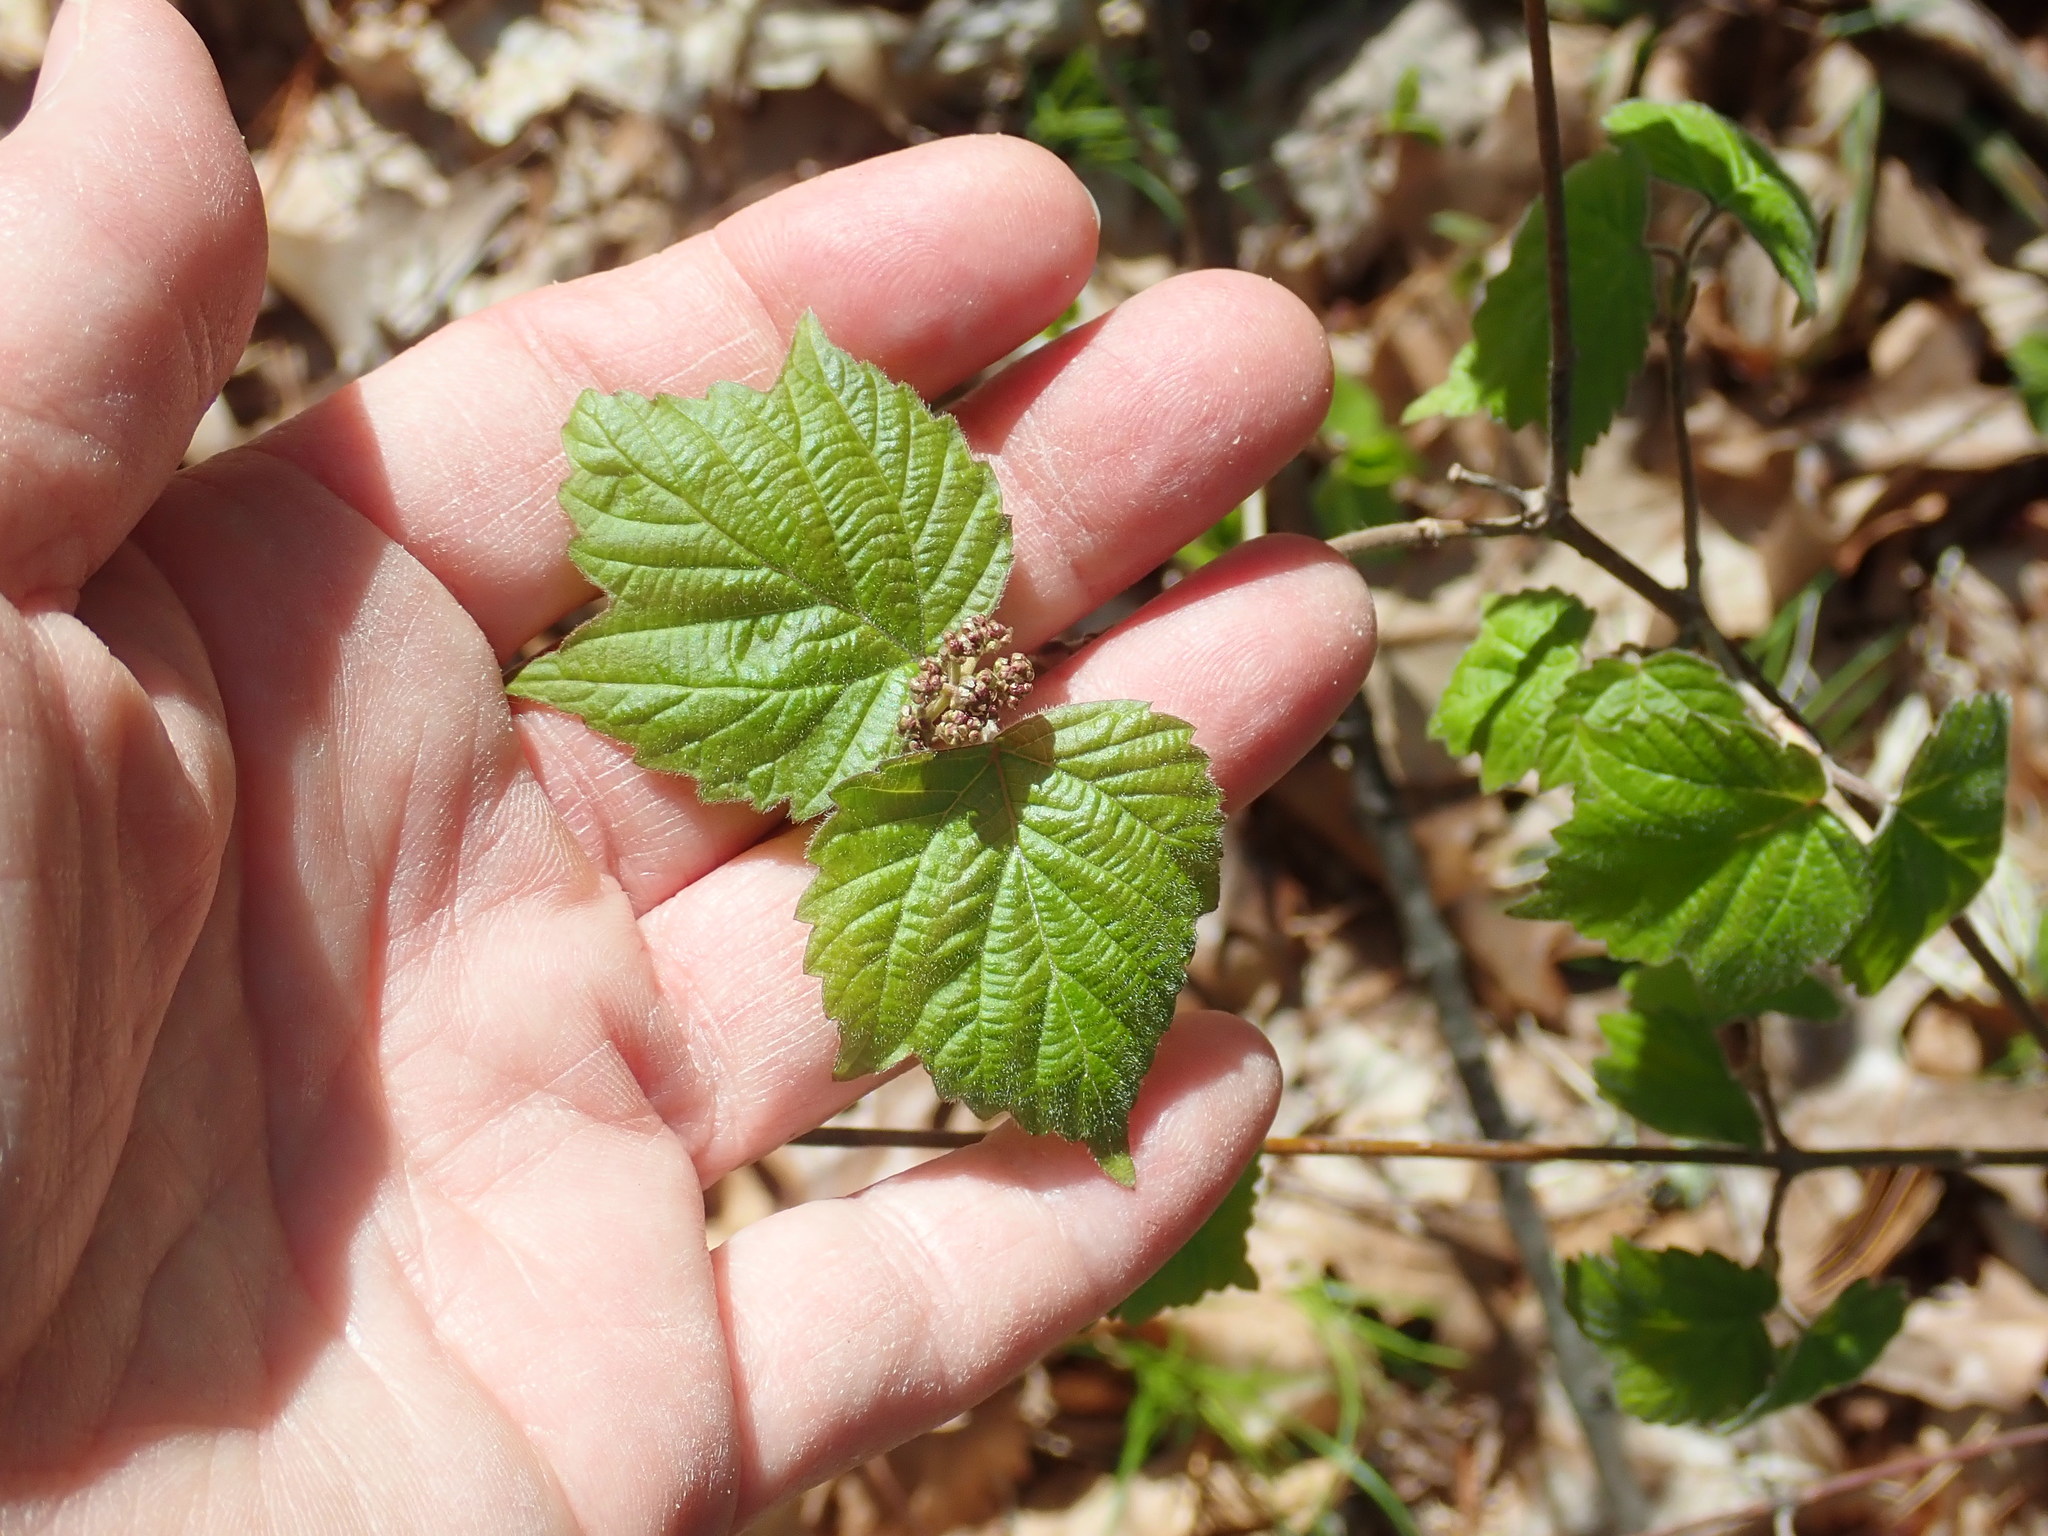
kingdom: Plantae
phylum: Tracheophyta
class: Magnoliopsida
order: Dipsacales
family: Viburnaceae
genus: Viburnum
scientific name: Viburnum acerifolium
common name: Dockmackie
